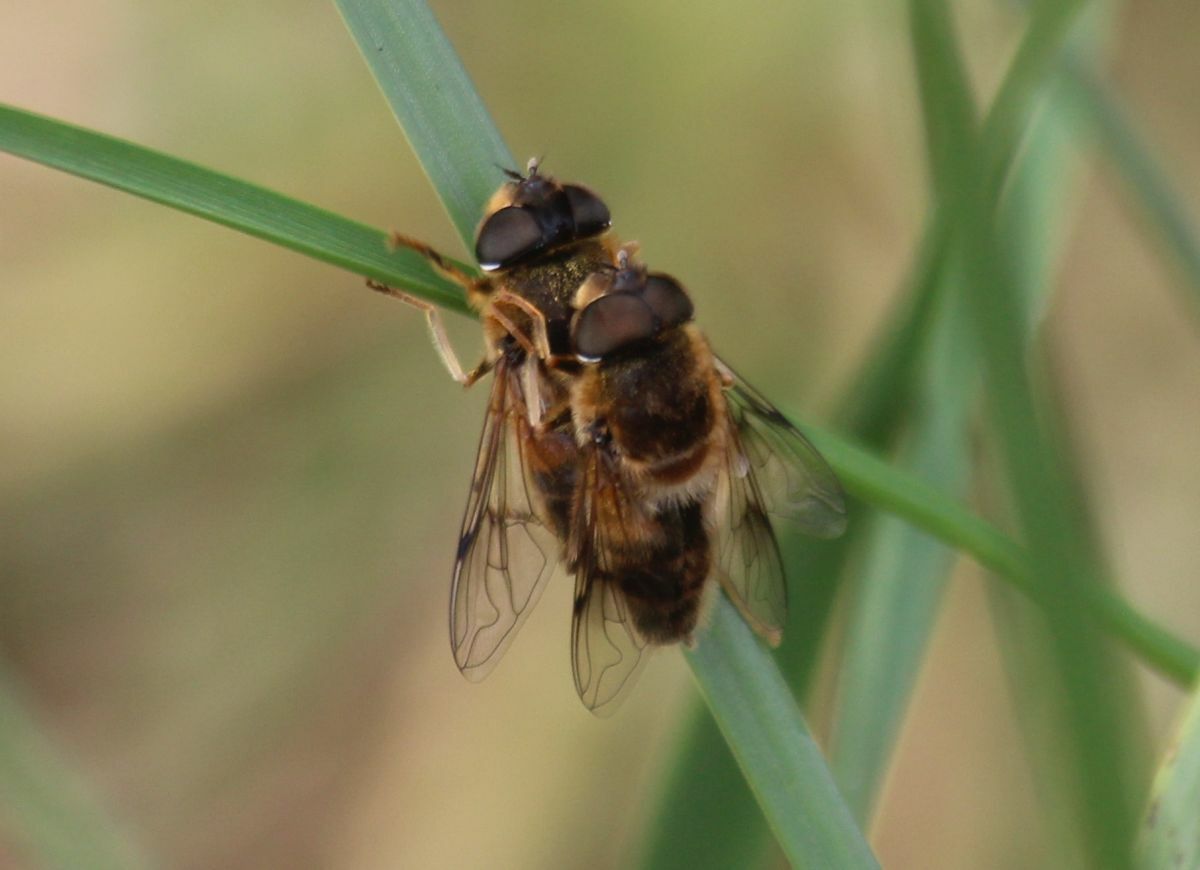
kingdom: Animalia
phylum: Arthropoda
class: Insecta
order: Diptera
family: Syrphidae
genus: Eristalis
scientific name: Eristalis pertinax
